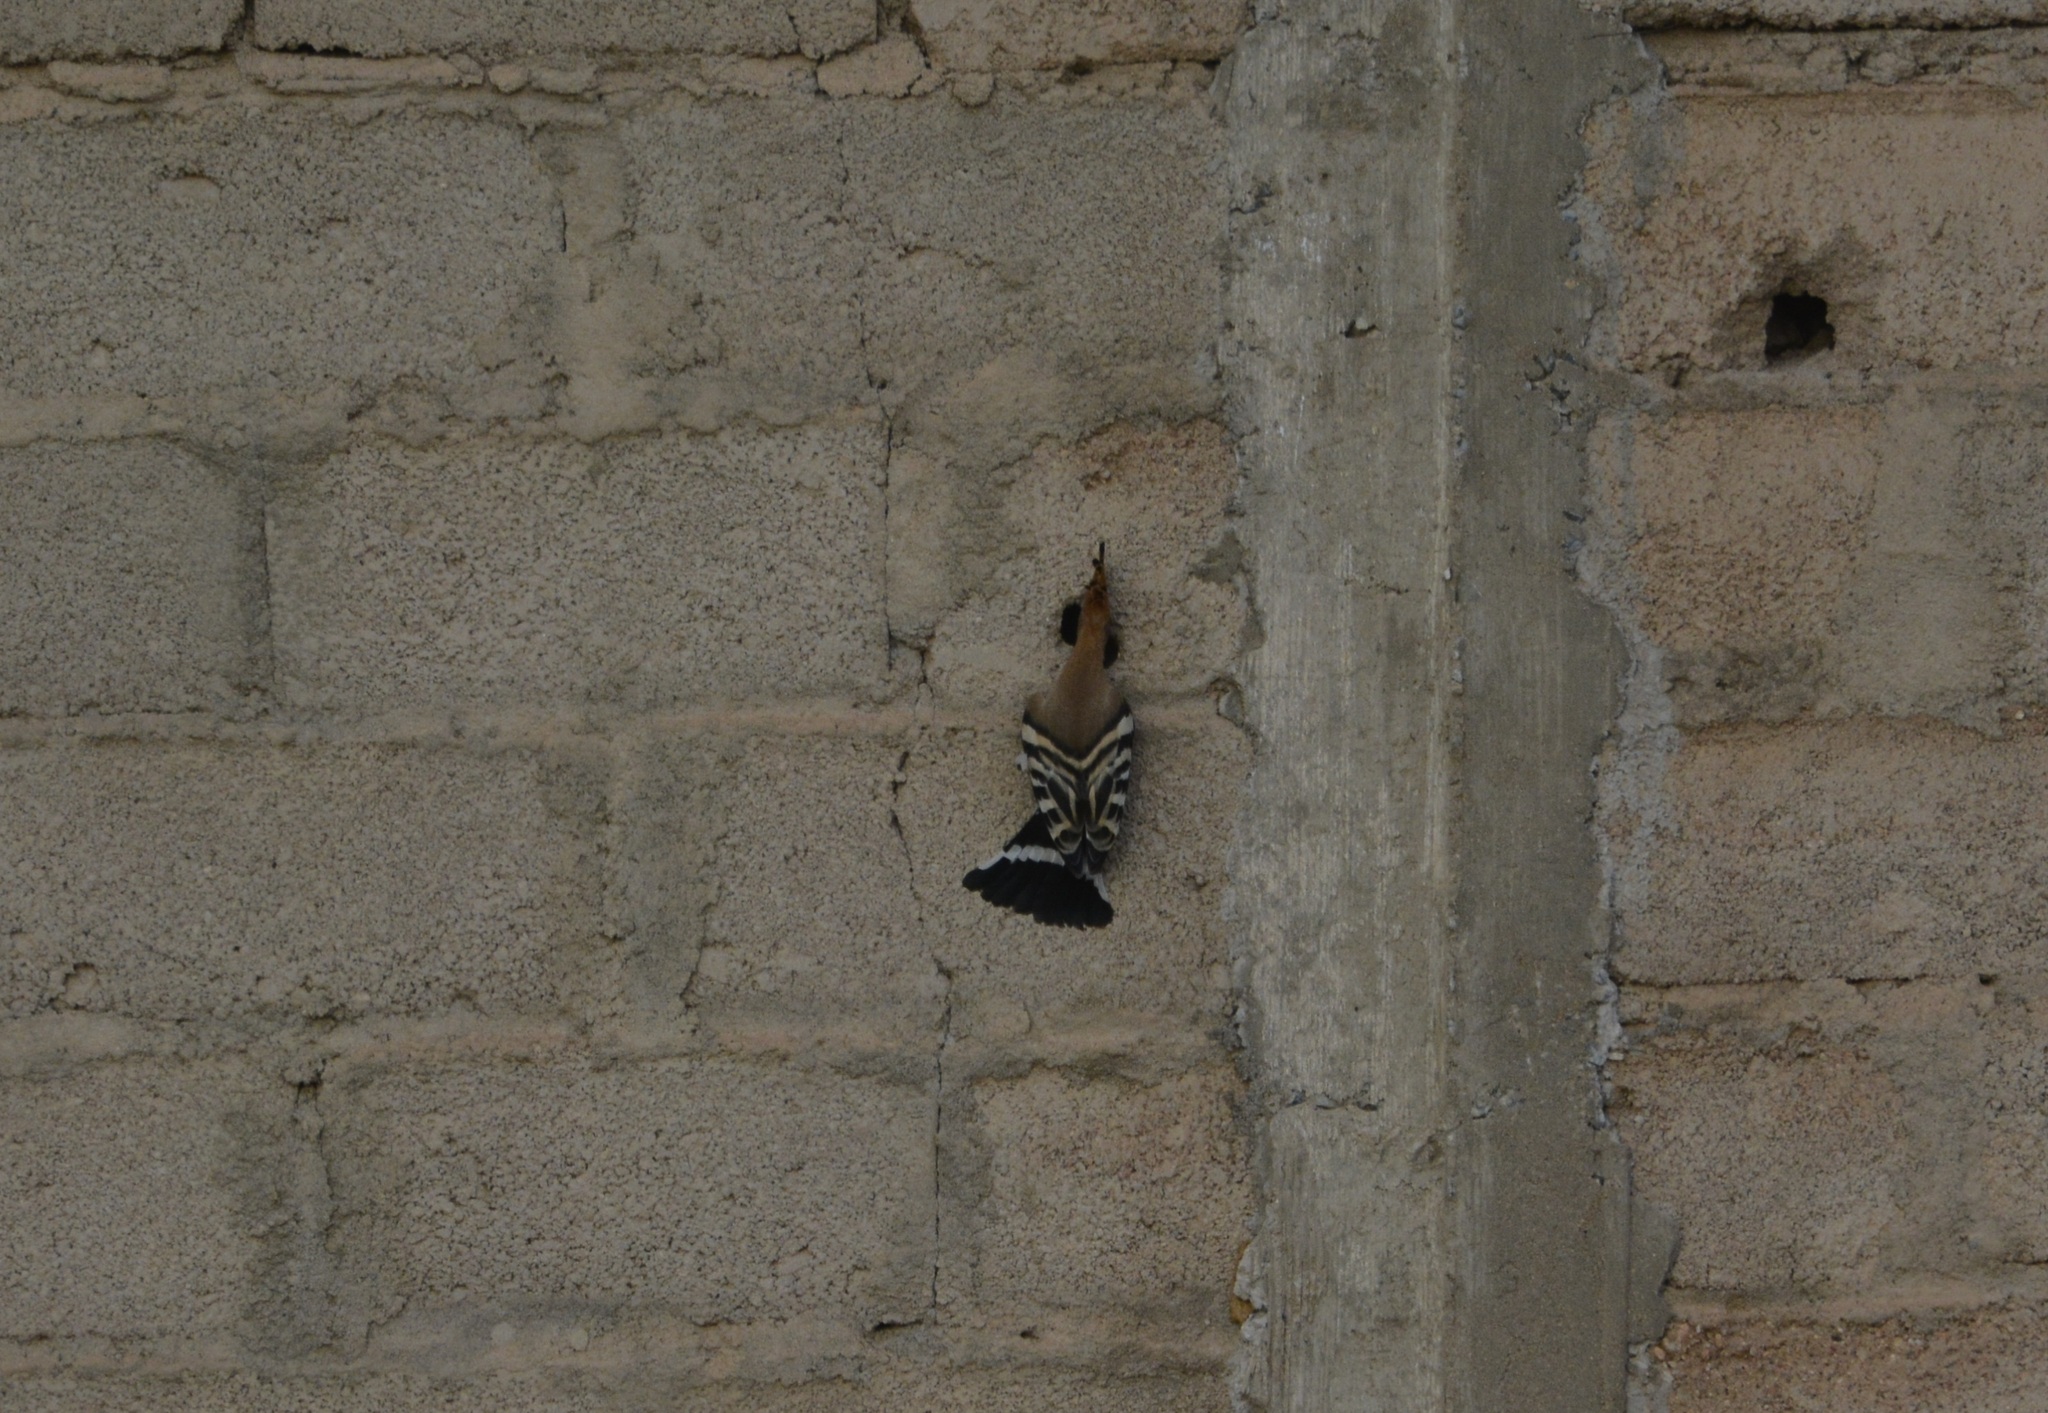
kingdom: Animalia
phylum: Chordata
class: Aves
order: Bucerotiformes
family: Upupidae
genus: Upupa
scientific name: Upupa epops
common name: Eurasian hoopoe
